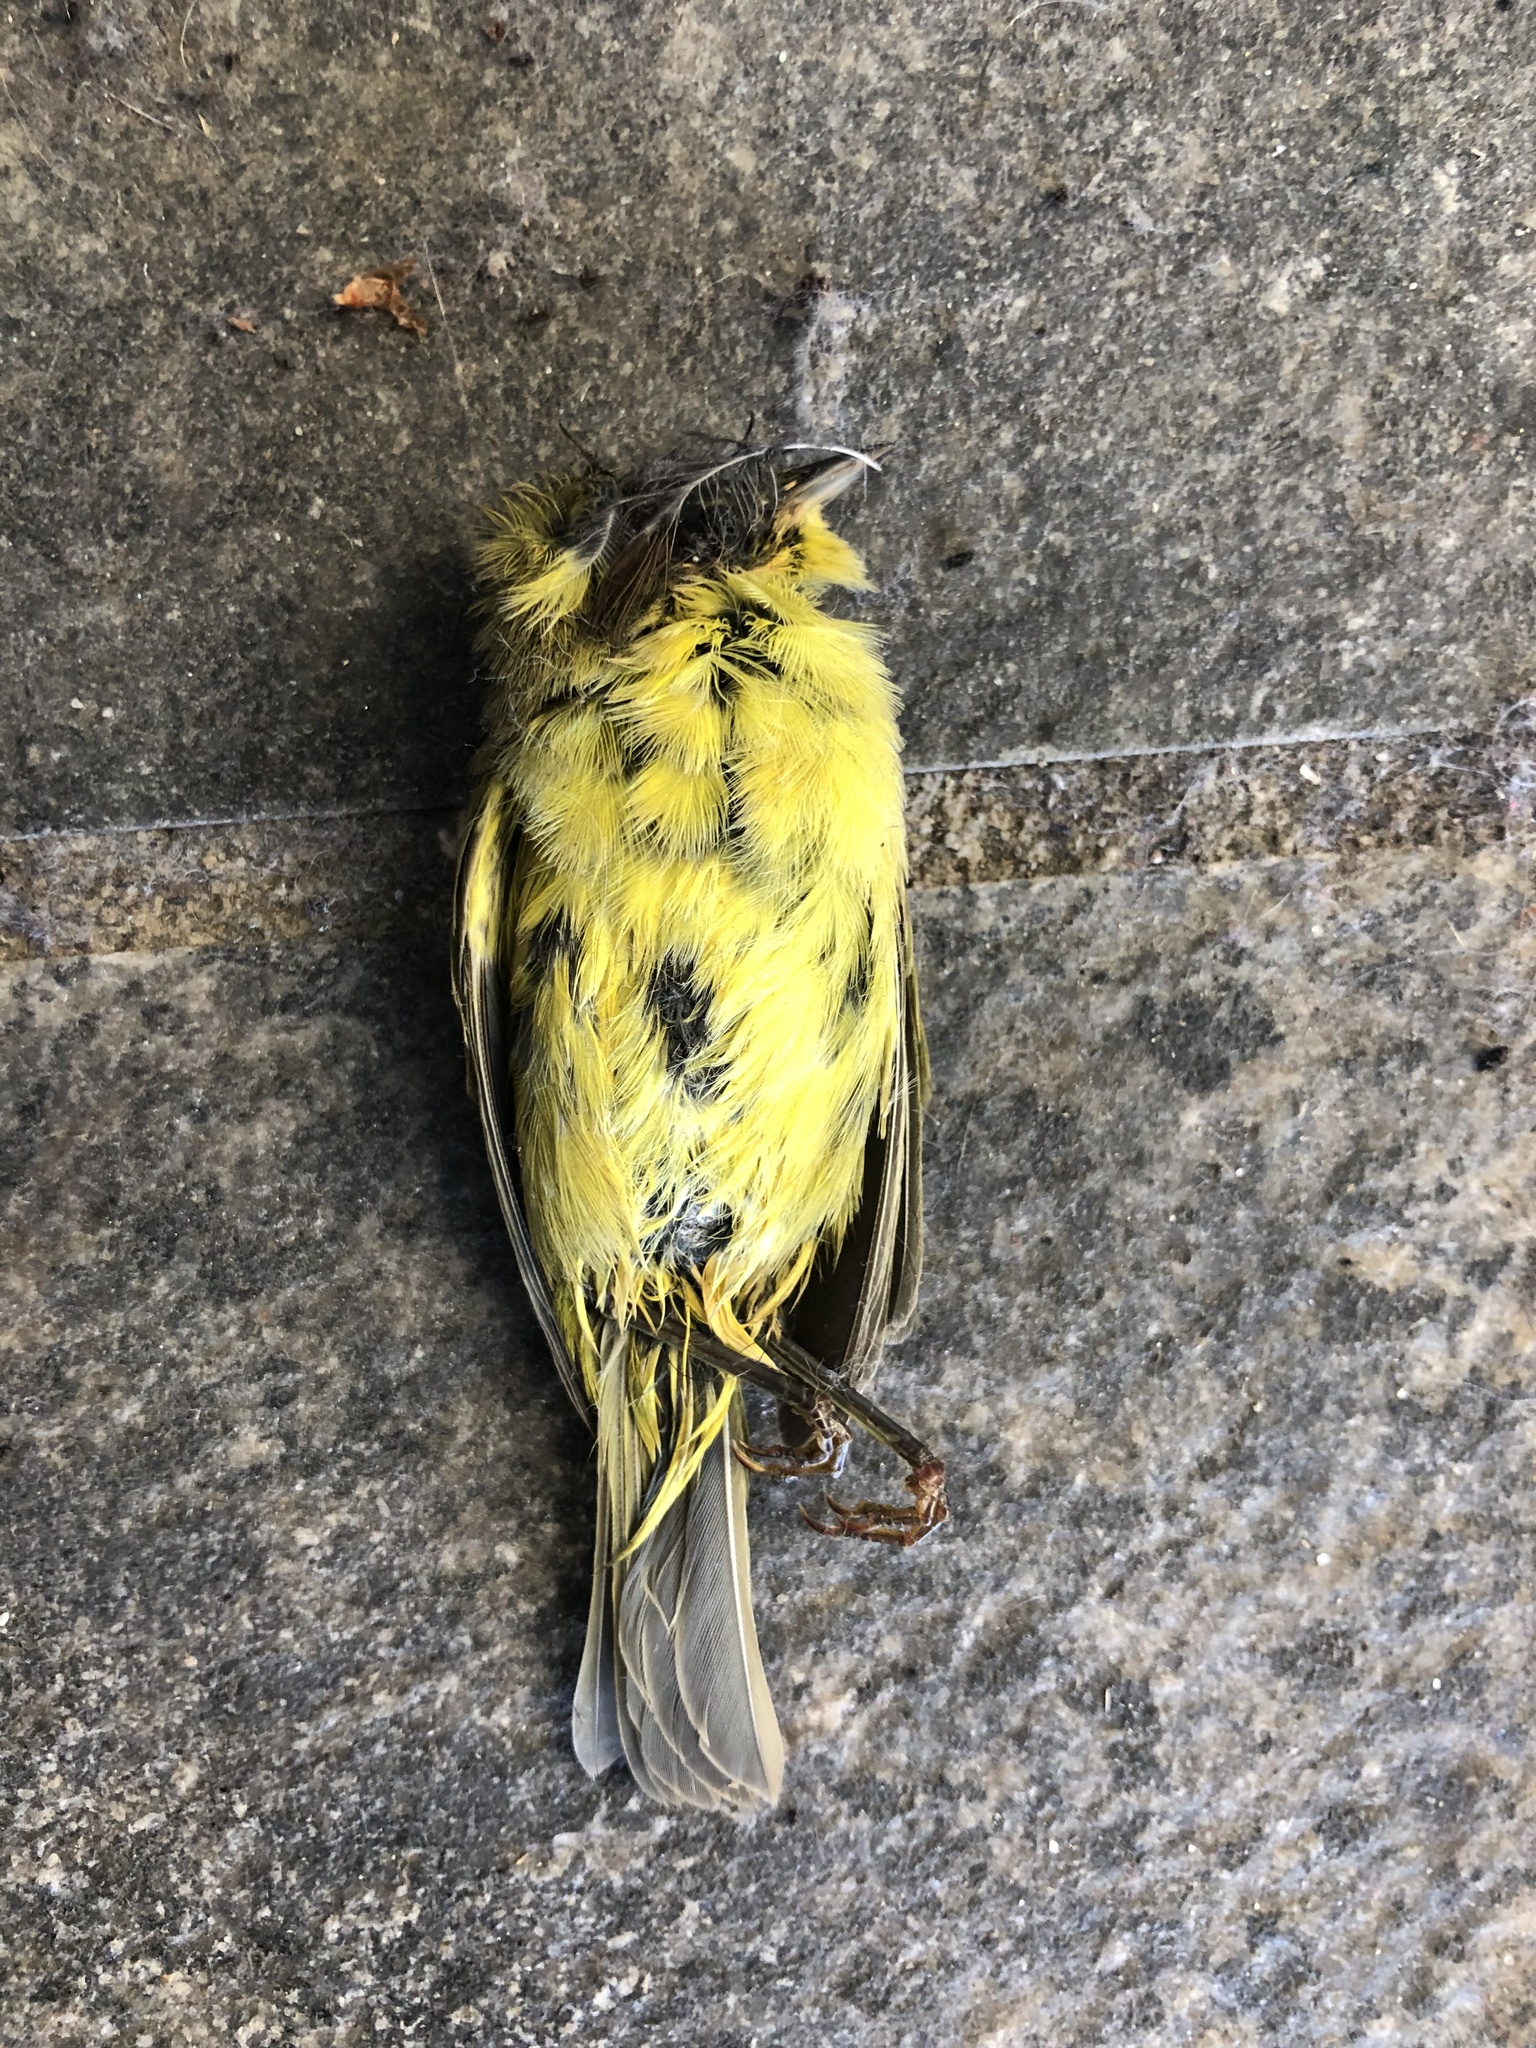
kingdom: Animalia
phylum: Chordata
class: Aves
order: Passeriformes
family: Parulidae
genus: Geothlypis
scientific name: Geothlypis trichas
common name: Common yellowthroat
